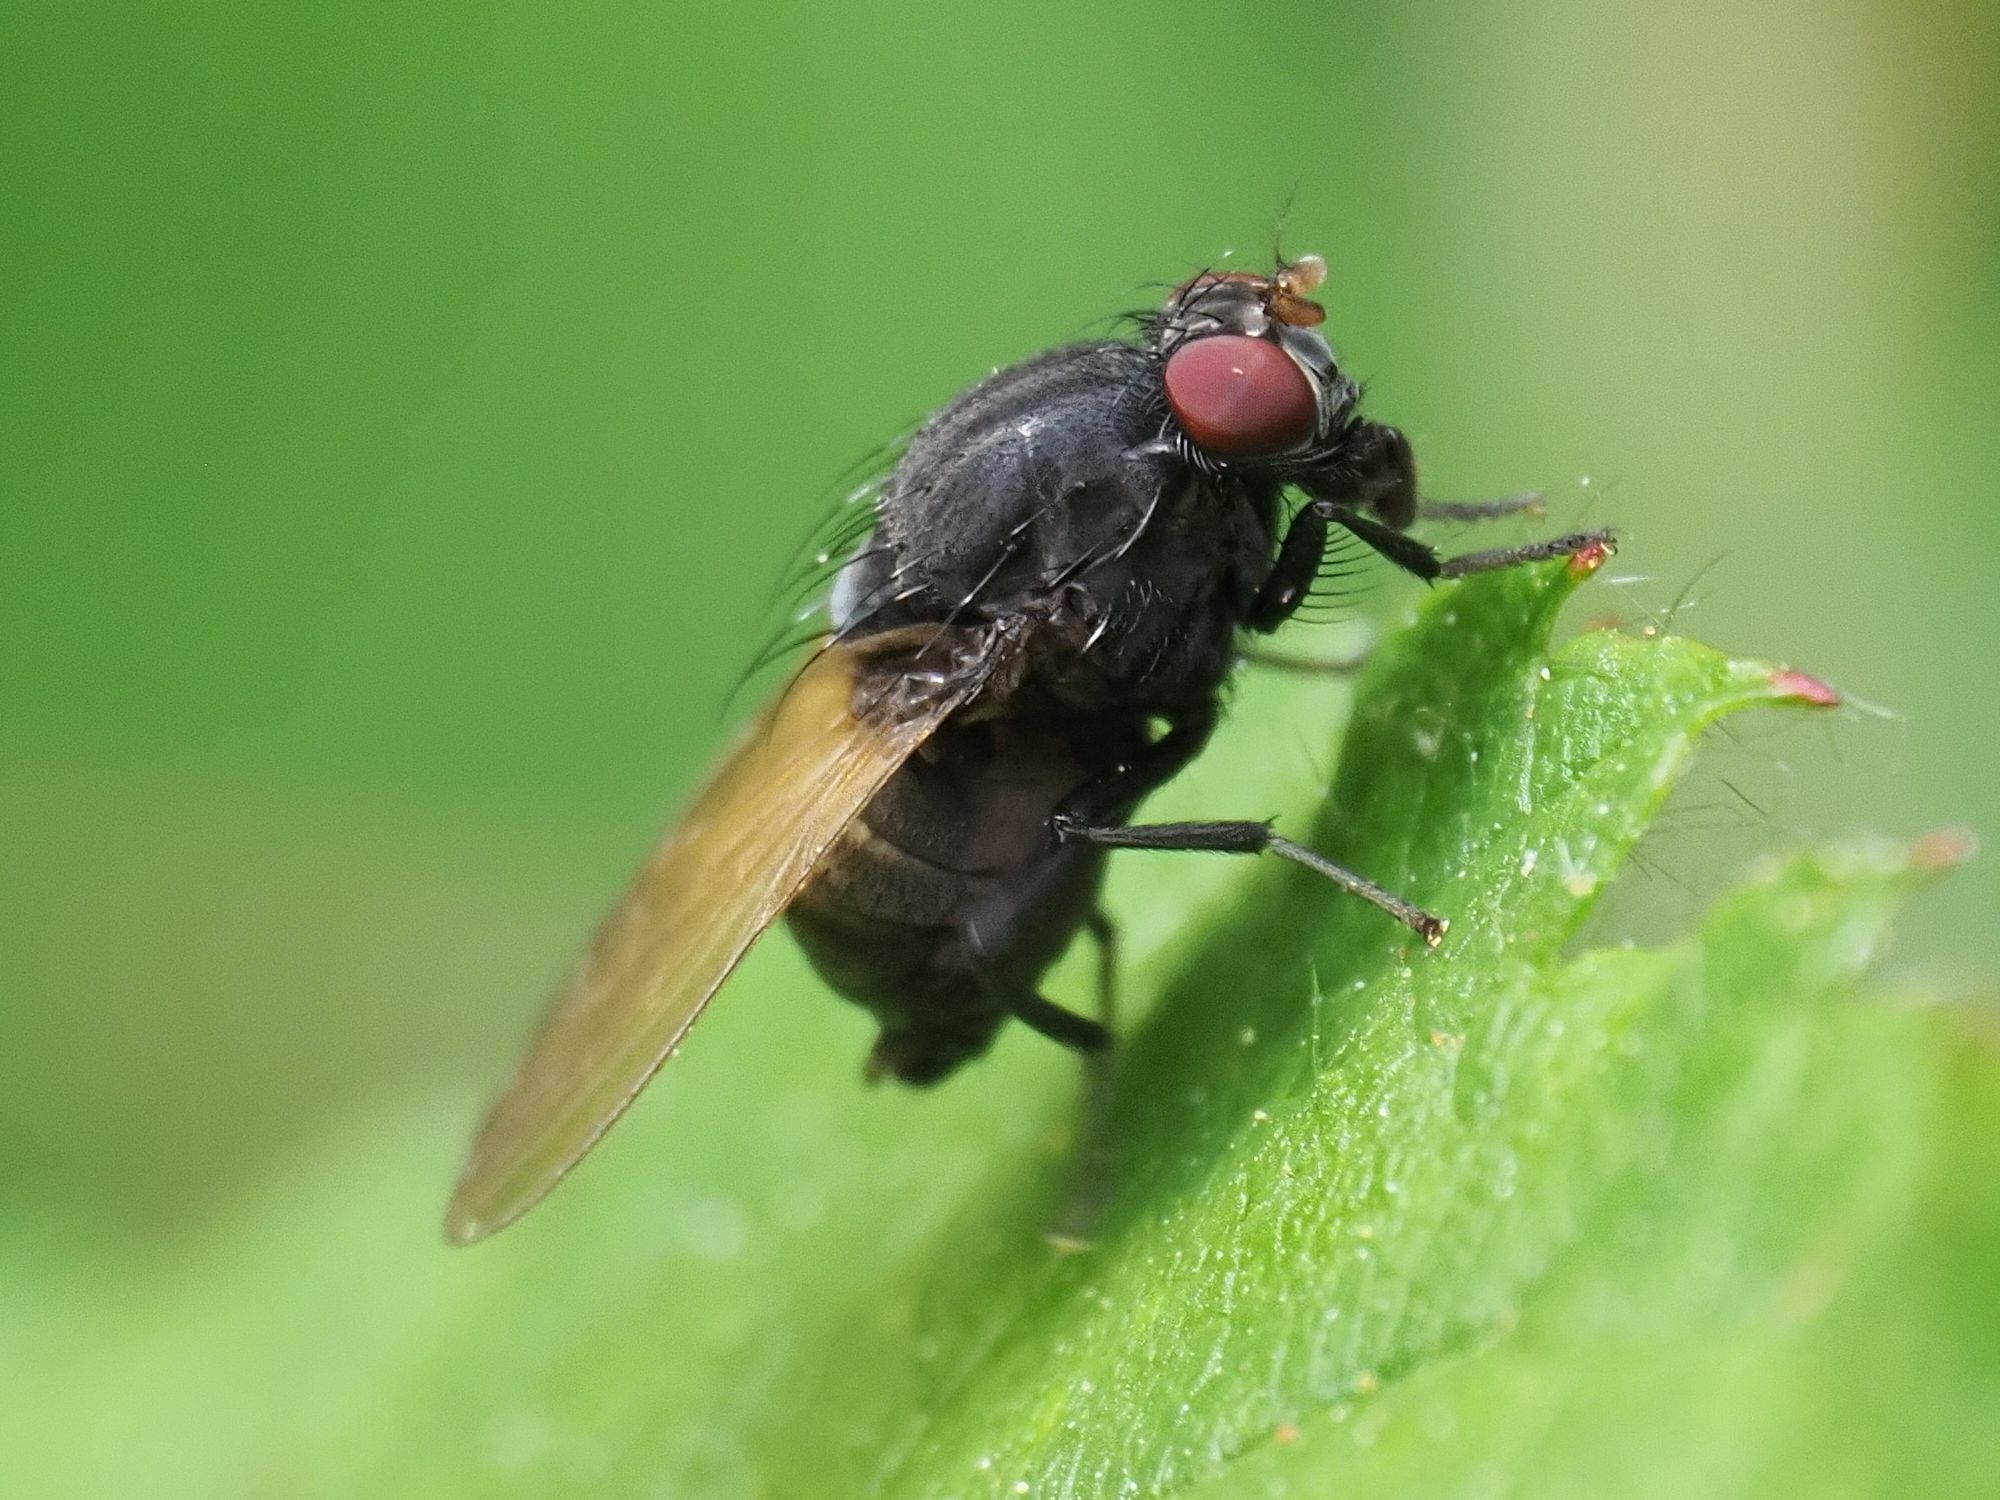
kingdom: Animalia
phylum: Arthropoda
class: Insecta
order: Diptera
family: Lauxaniidae
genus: Minettia
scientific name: Minettia longipennis
